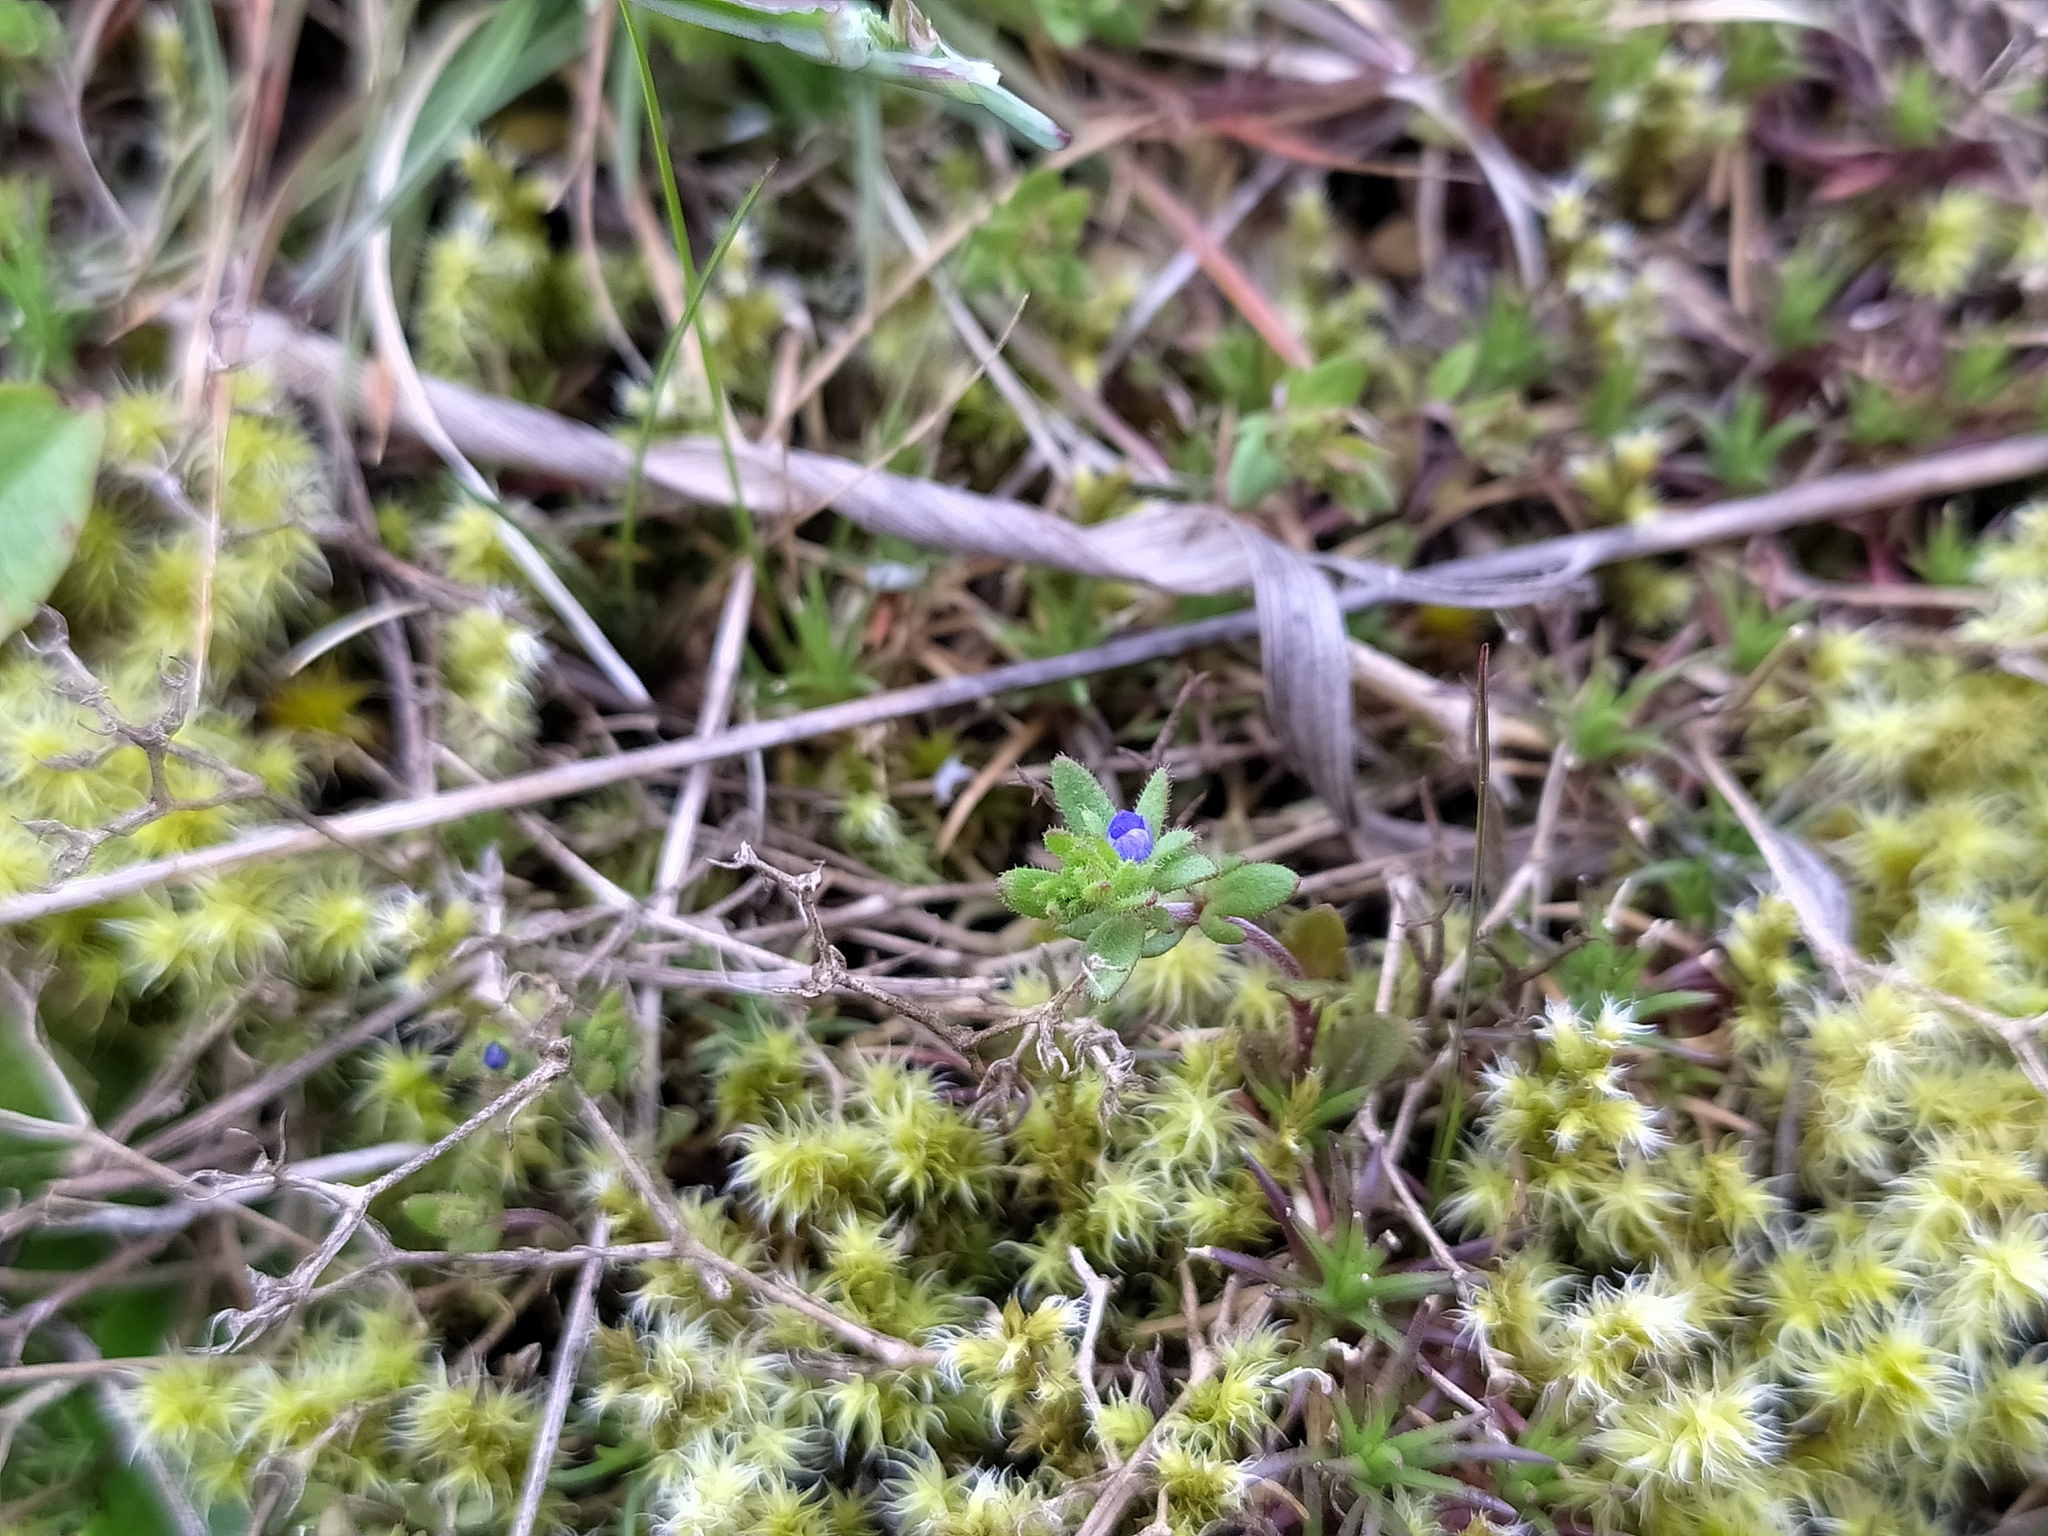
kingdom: Plantae
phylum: Tracheophyta
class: Magnoliopsida
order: Lamiales
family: Plantaginaceae
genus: Veronica
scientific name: Veronica verna
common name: Spring speedwell
